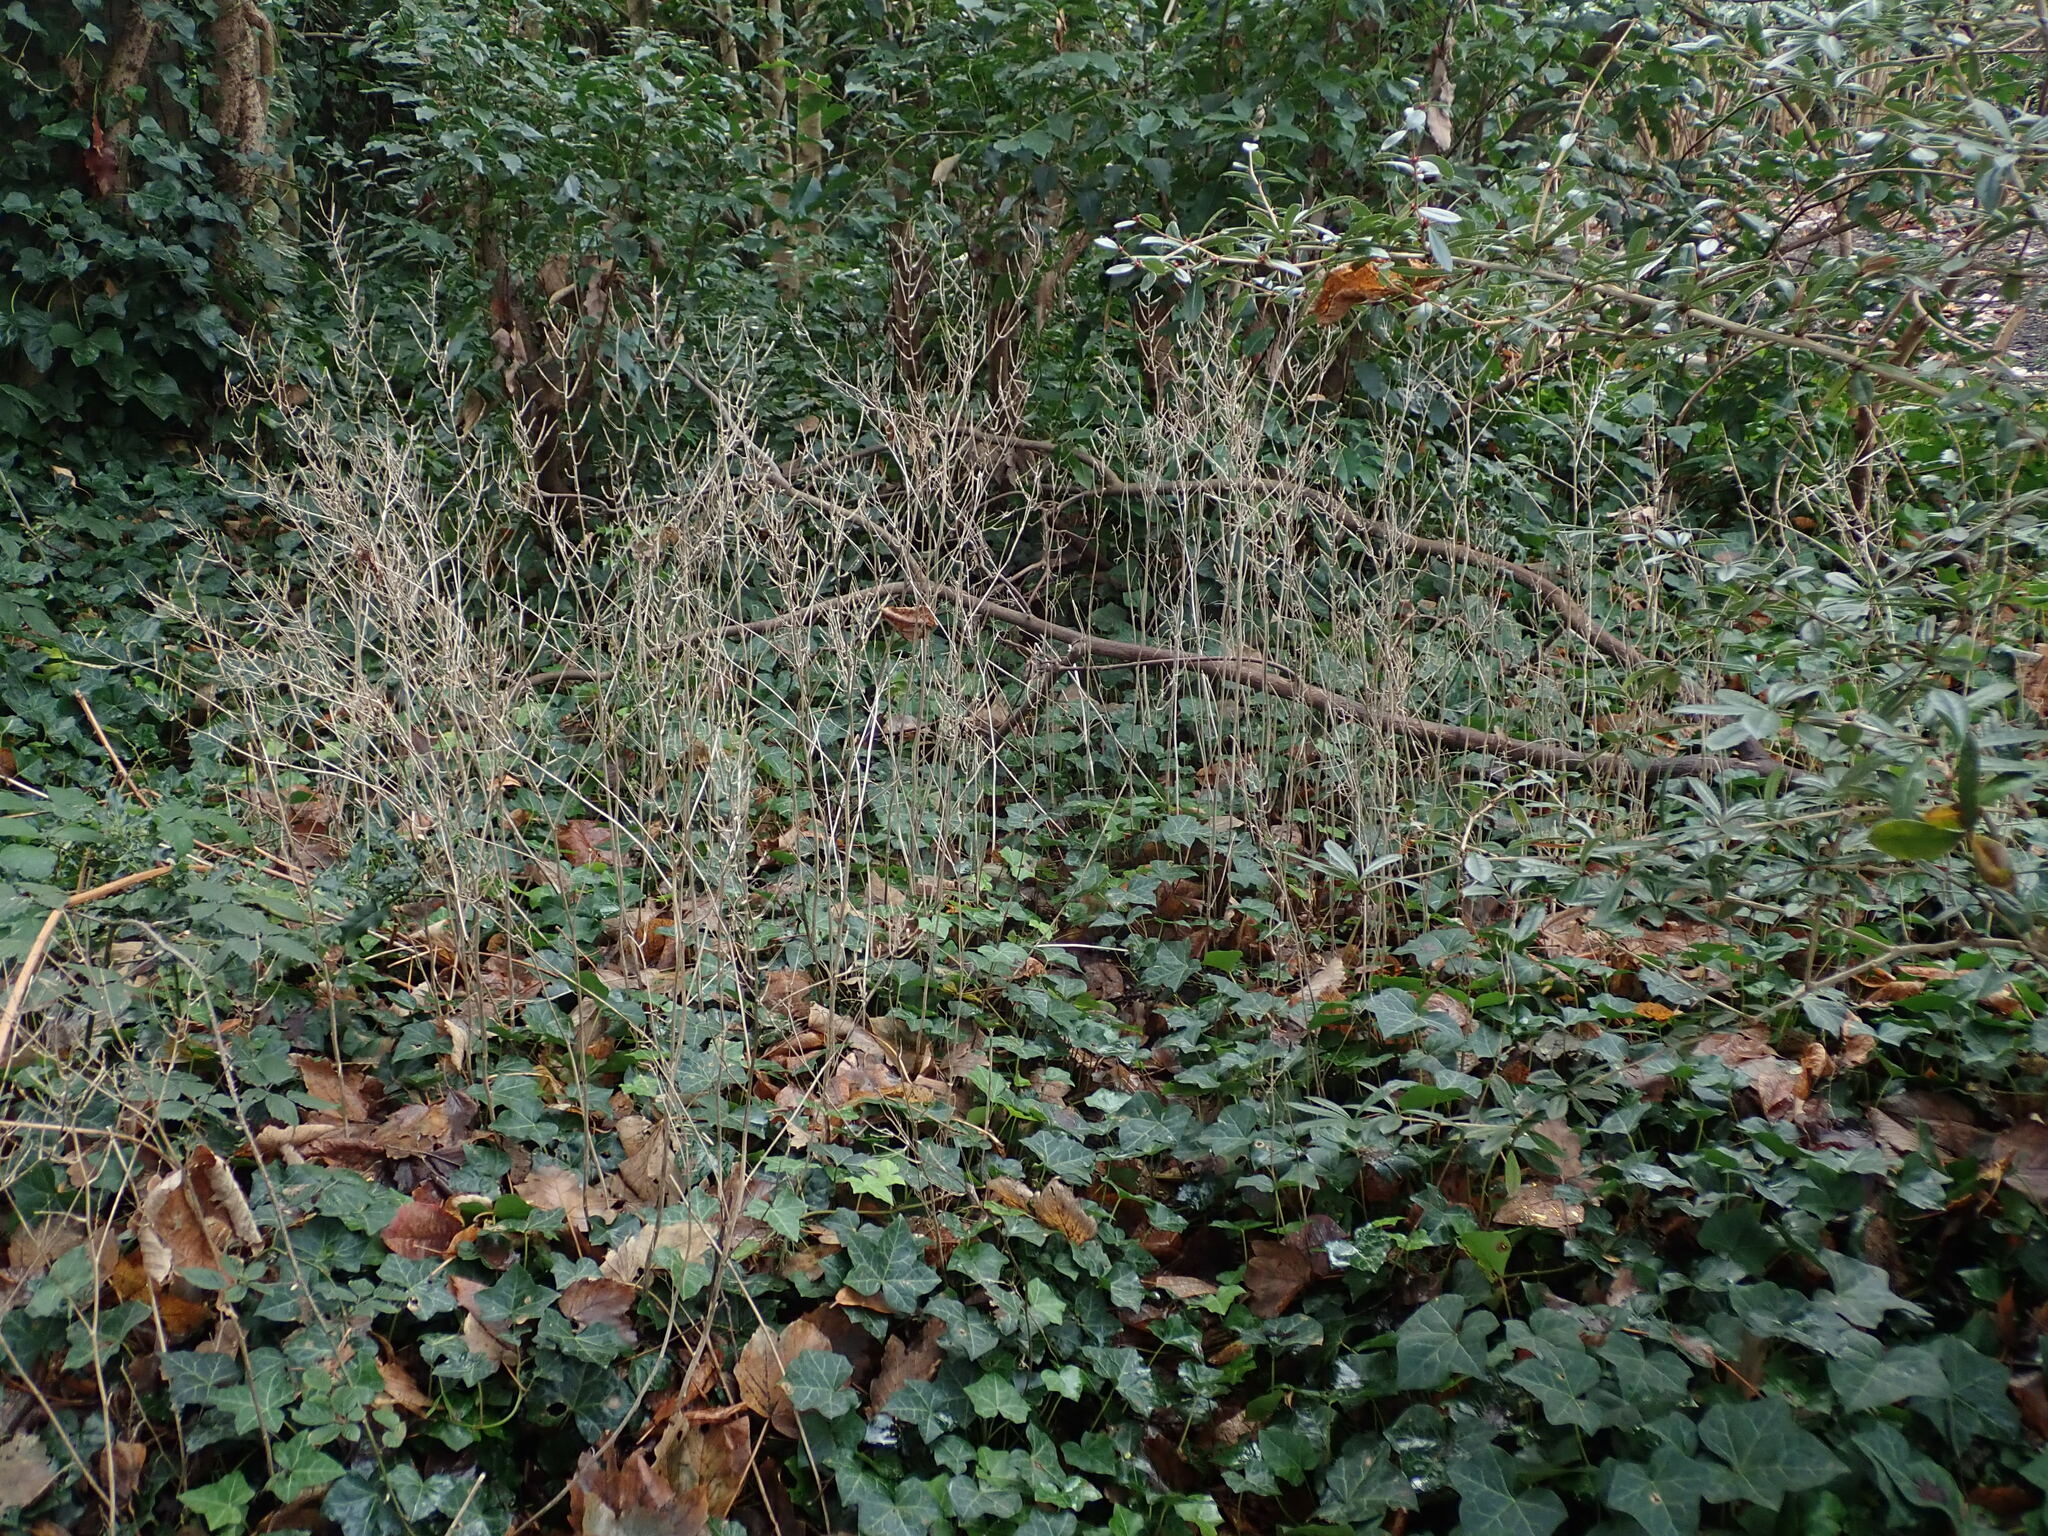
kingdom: Plantae
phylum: Tracheophyta
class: Magnoliopsida
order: Brassicales
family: Brassicaceae
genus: Alliaria
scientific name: Alliaria petiolata
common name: Garlic mustard
